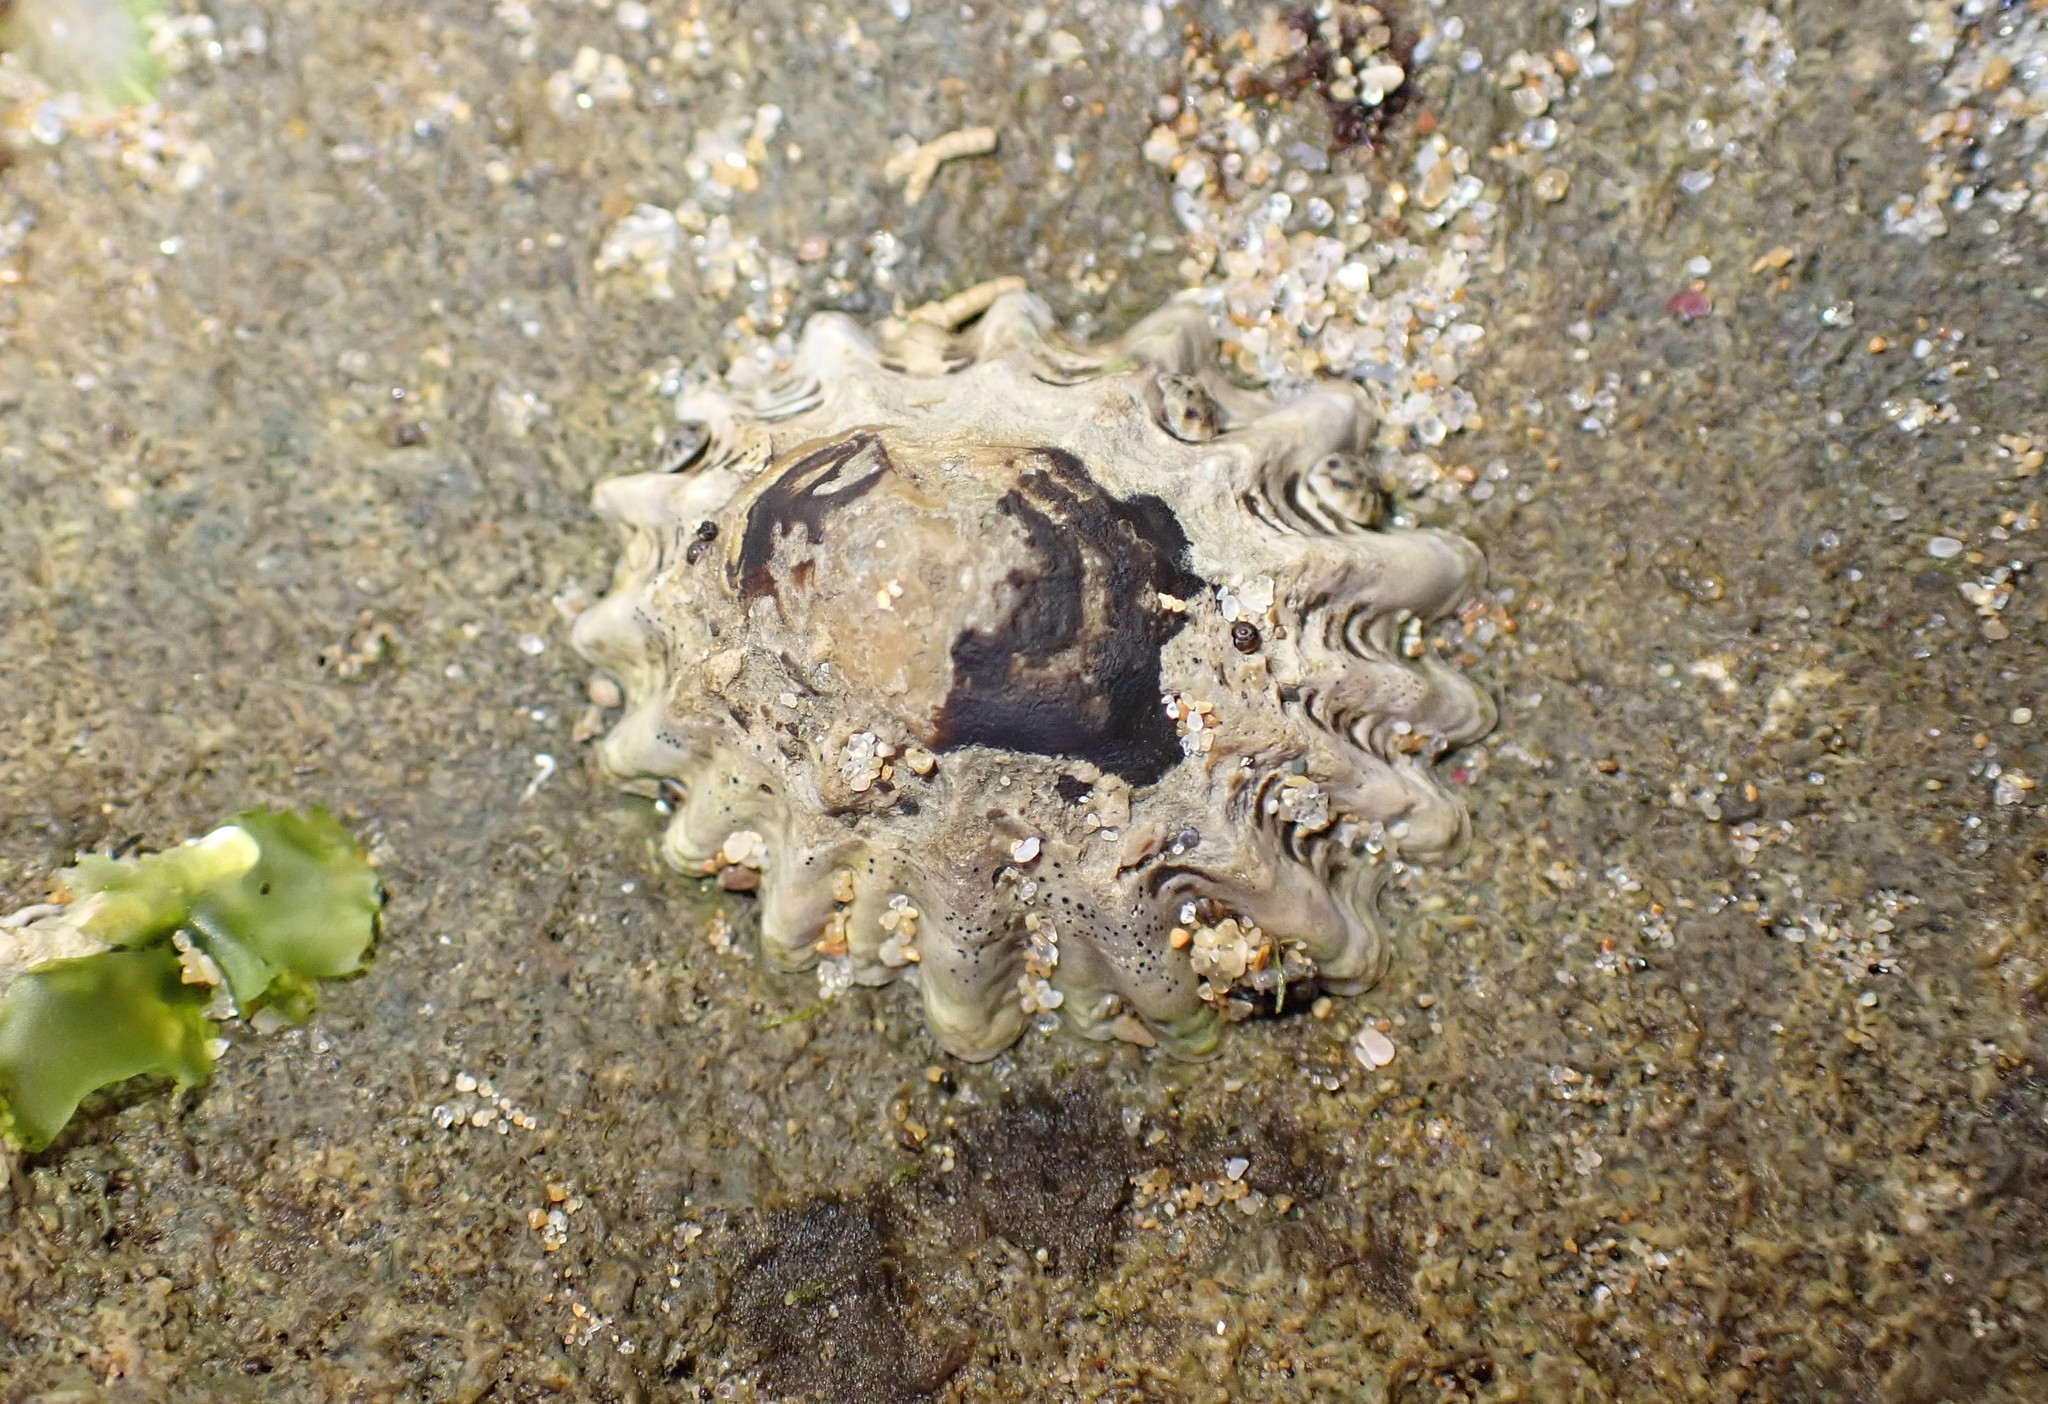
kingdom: Animalia
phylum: Mollusca
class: Gastropoda
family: Lottiidae
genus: Patelloida
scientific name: Patelloida alticostata
